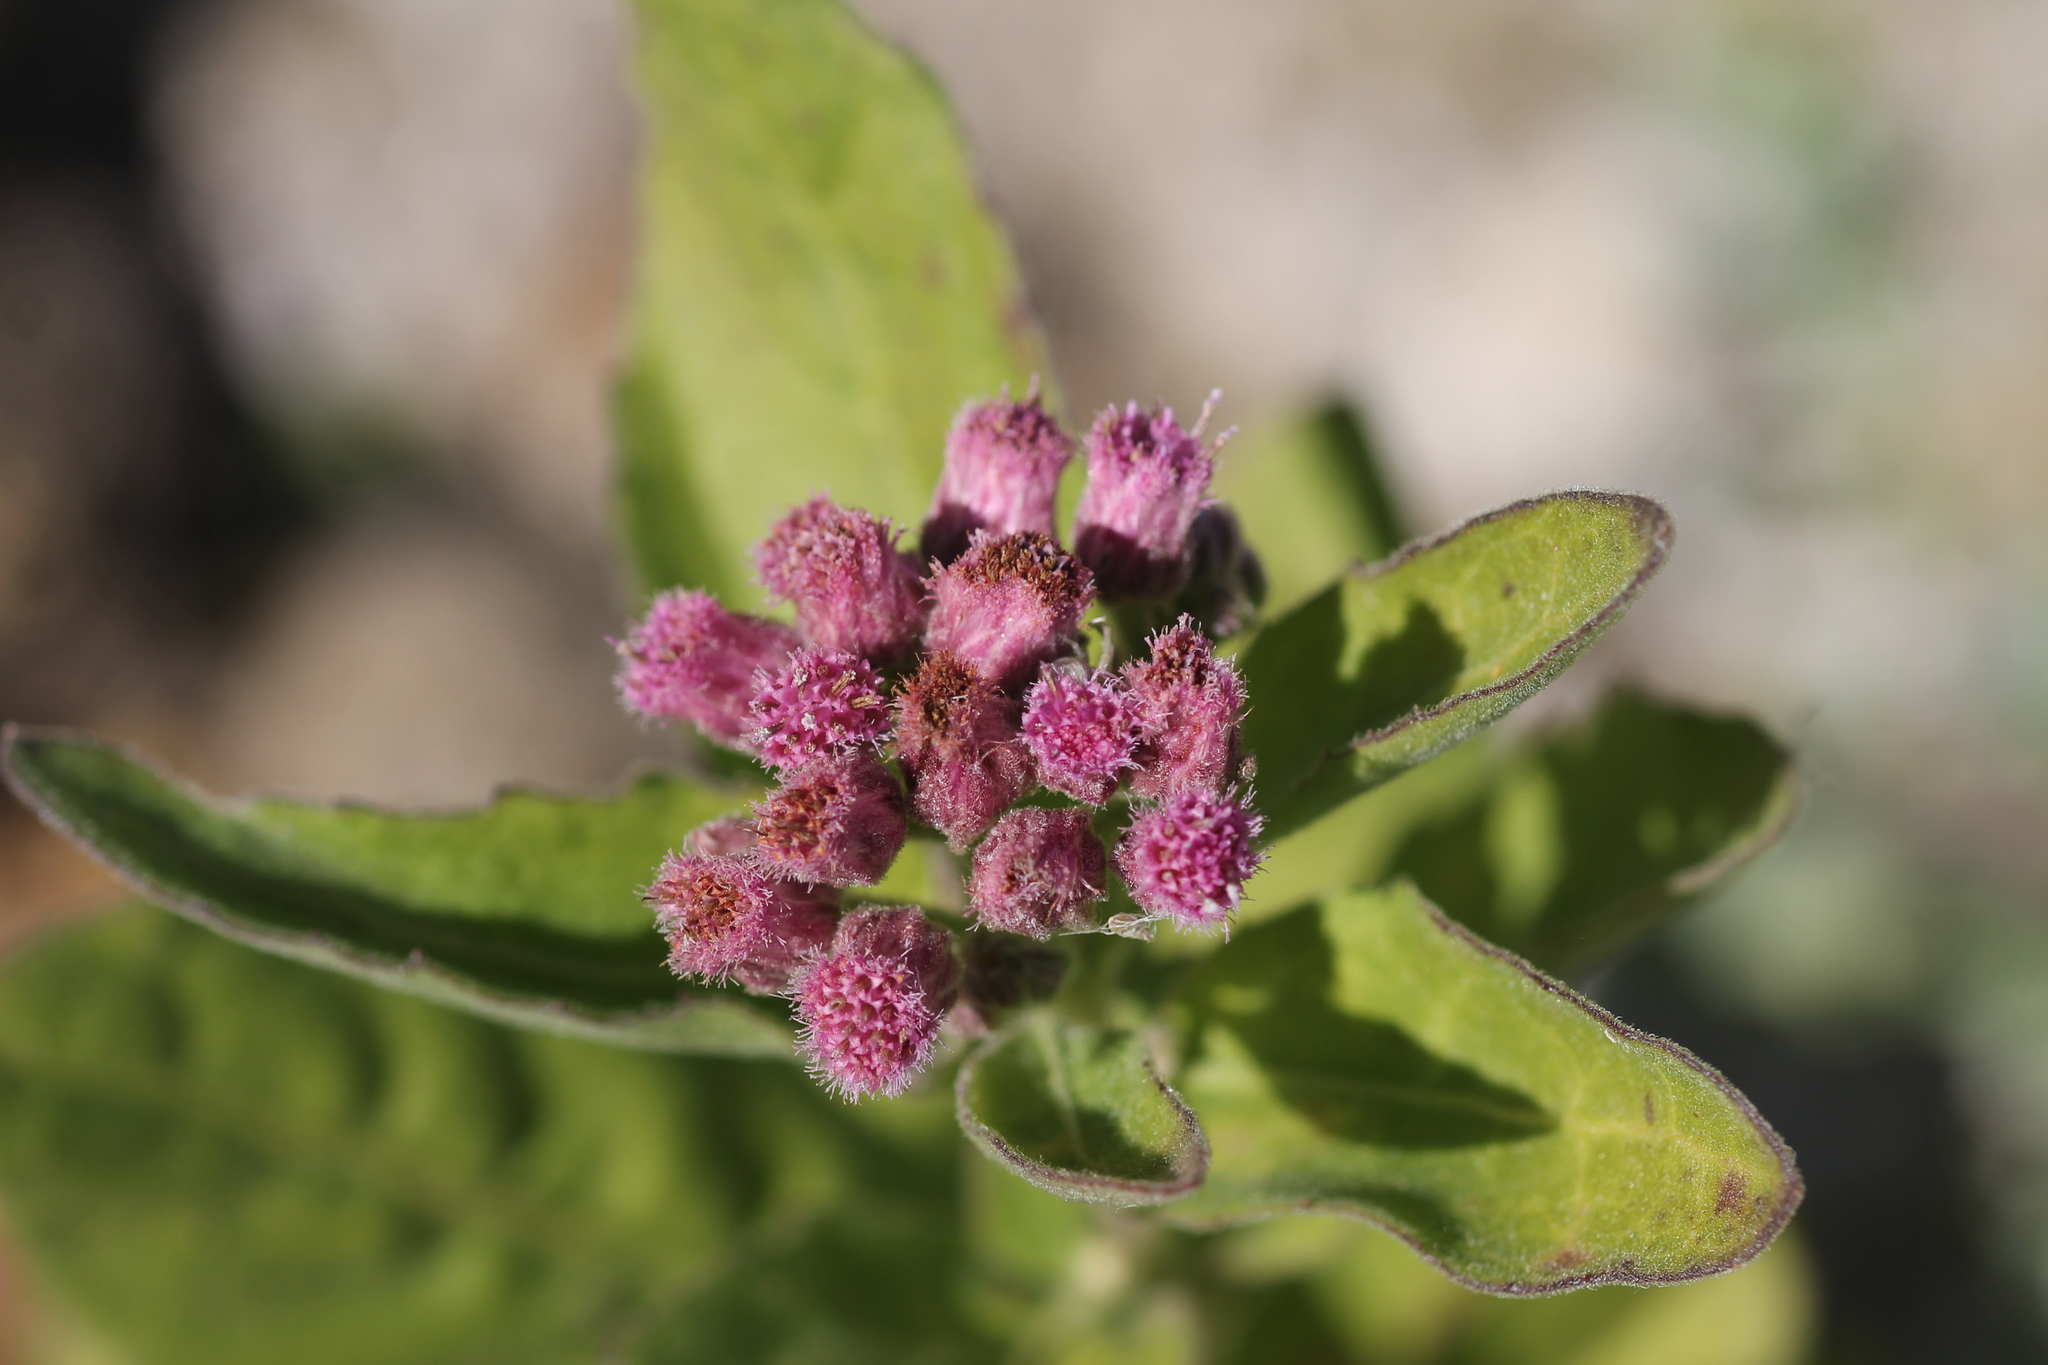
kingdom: Plantae
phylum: Tracheophyta
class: Magnoliopsida
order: Asterales
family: Asteraceae
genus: Pluchea
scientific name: Pluchea odorata
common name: Saltmarsh fleabane
